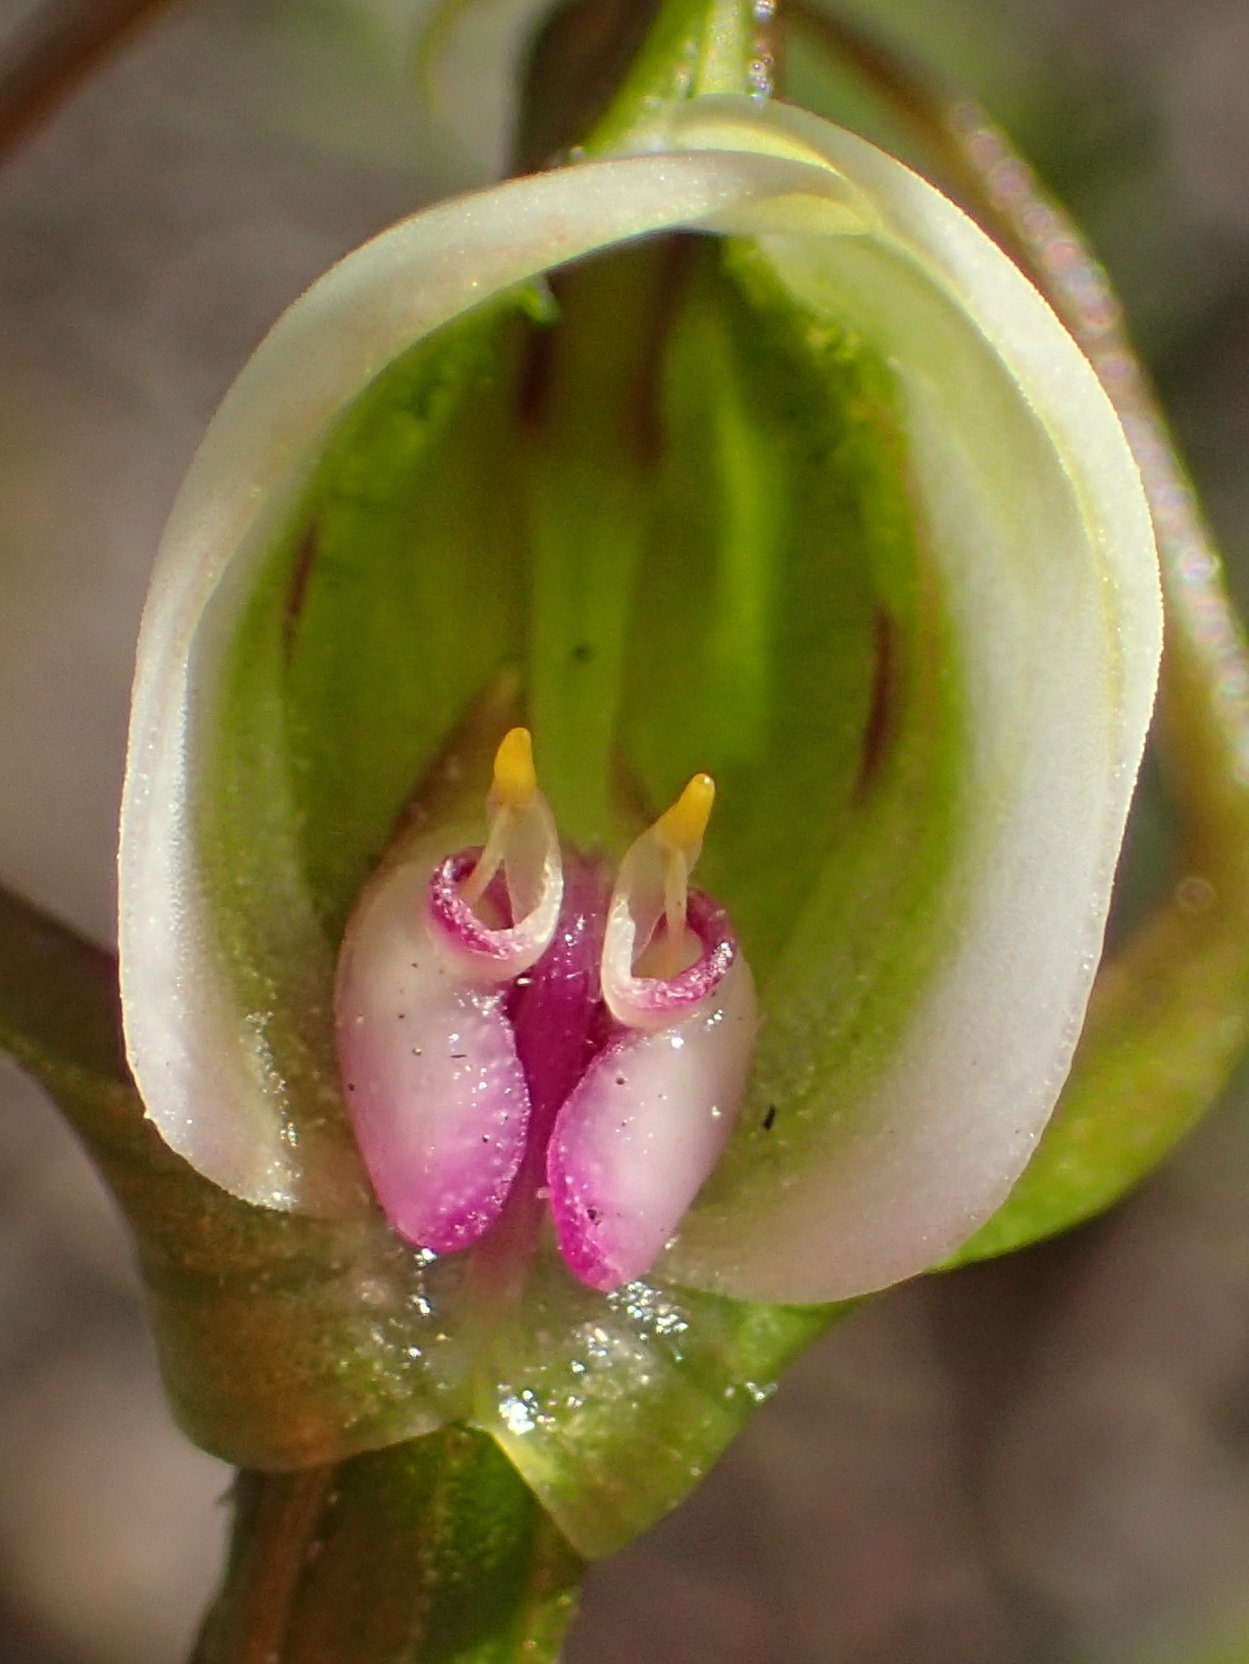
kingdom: Plantae
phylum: Tracheophyta
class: Liliopsida
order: Asparagales
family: Orchidaceae
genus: Disperis
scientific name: Disperis capensis
